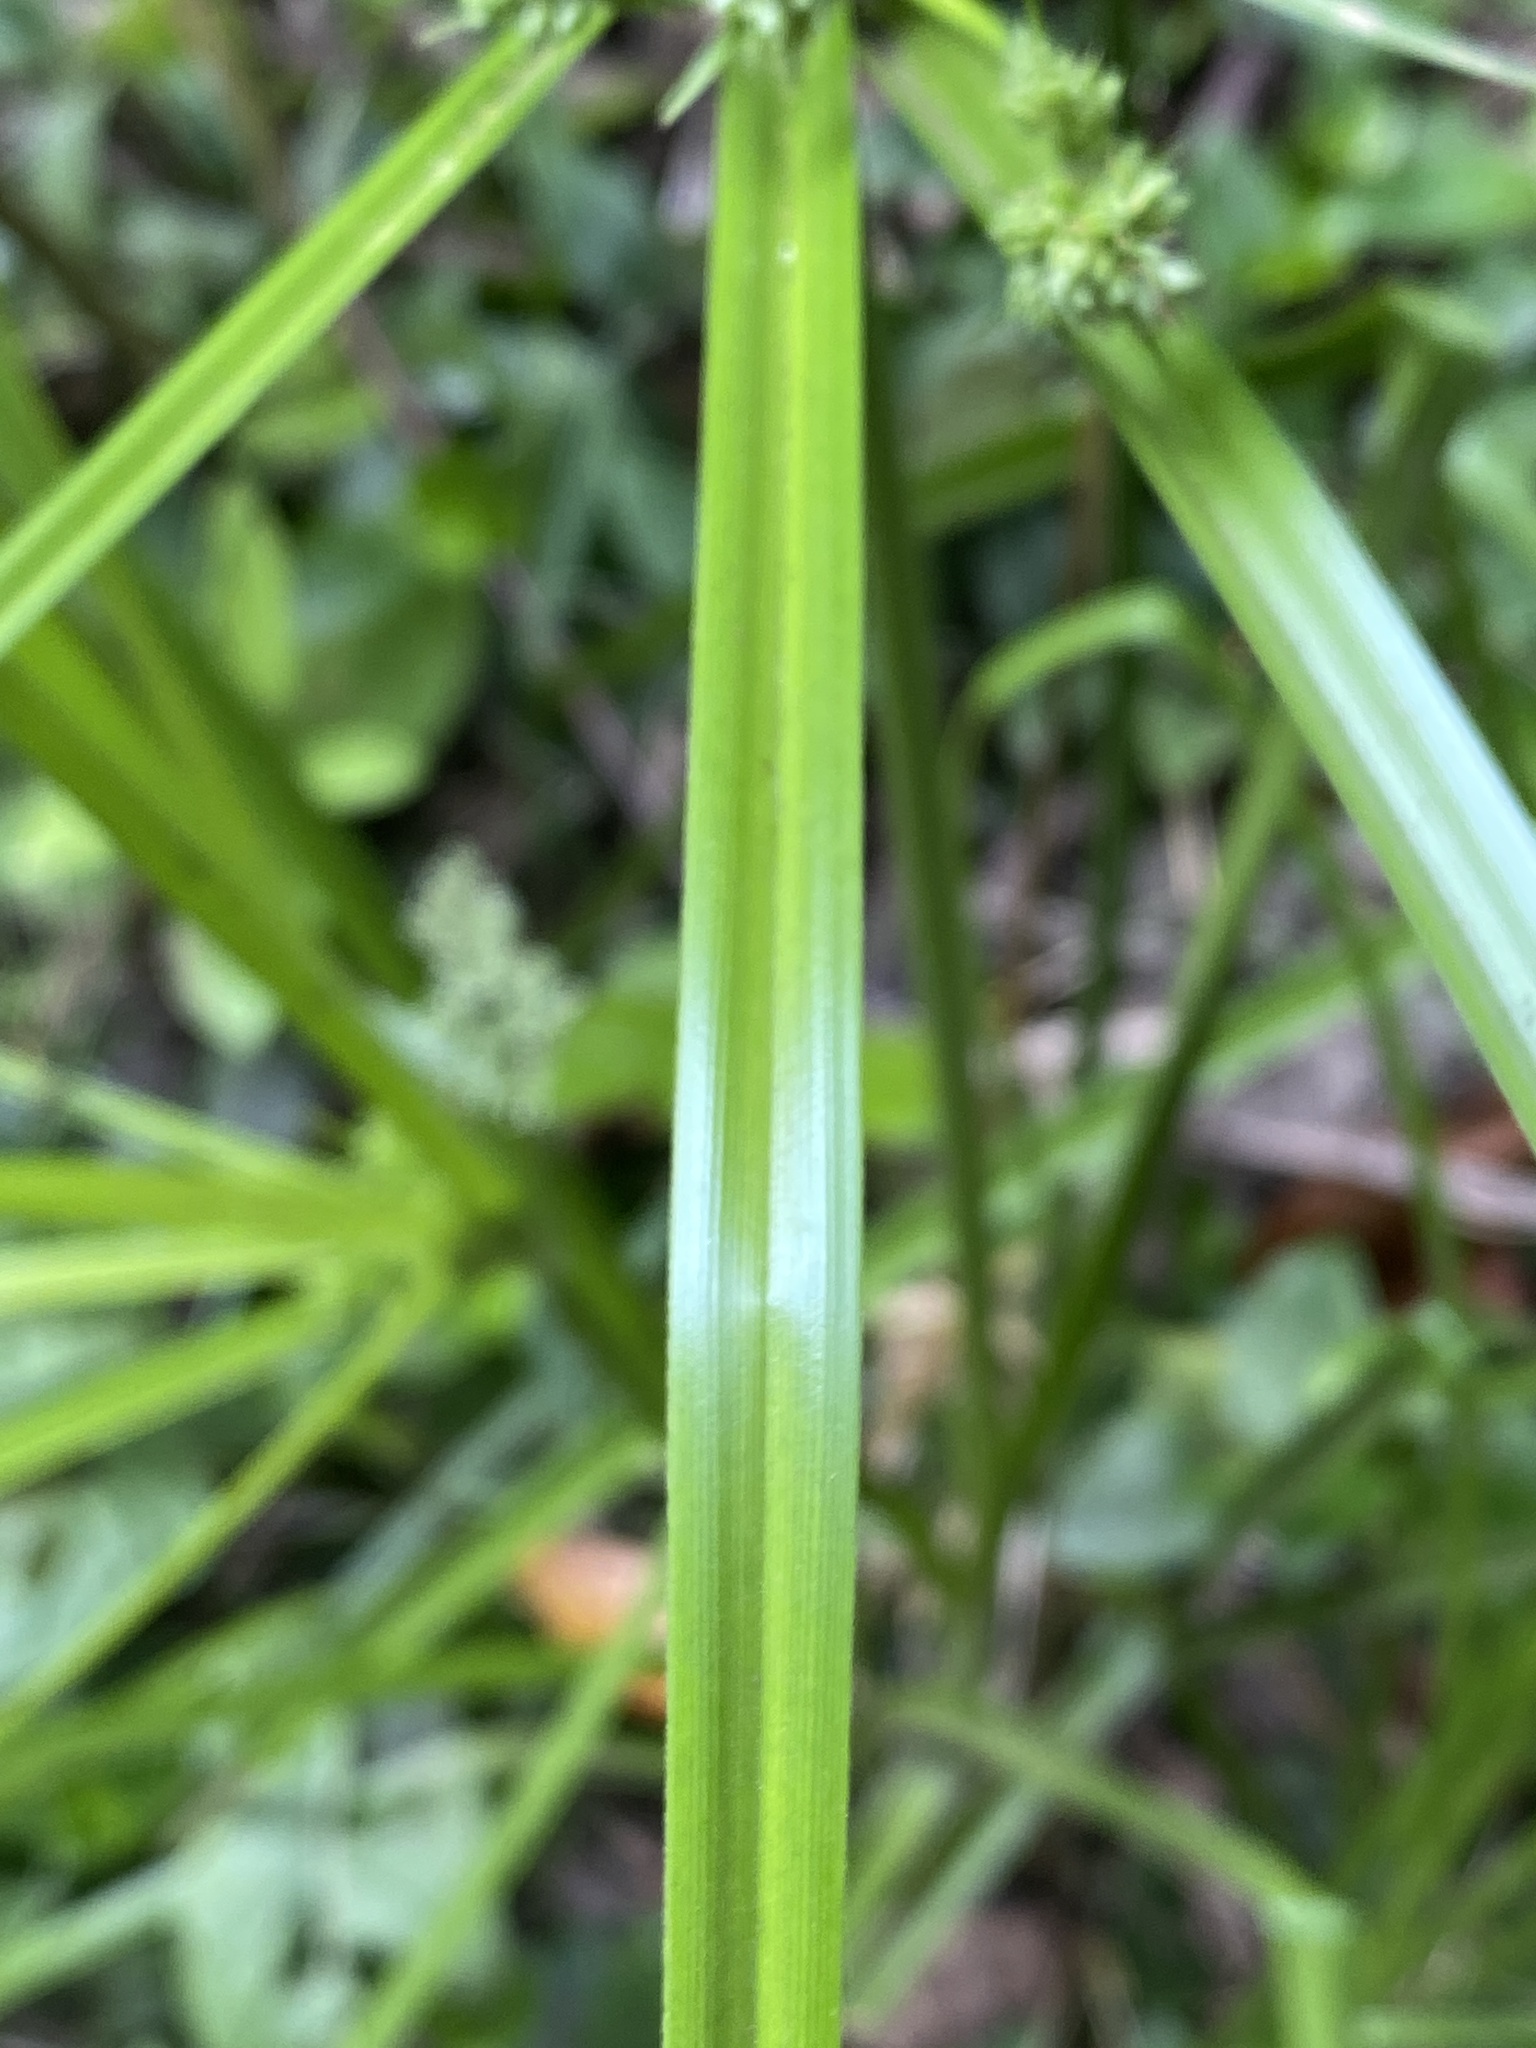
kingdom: Plantae
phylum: Tracheophyta
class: Liliopsida
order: Poales
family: Cyperaceae
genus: Cyperus
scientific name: Cyperus eragrostis
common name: Tall flatsedge
